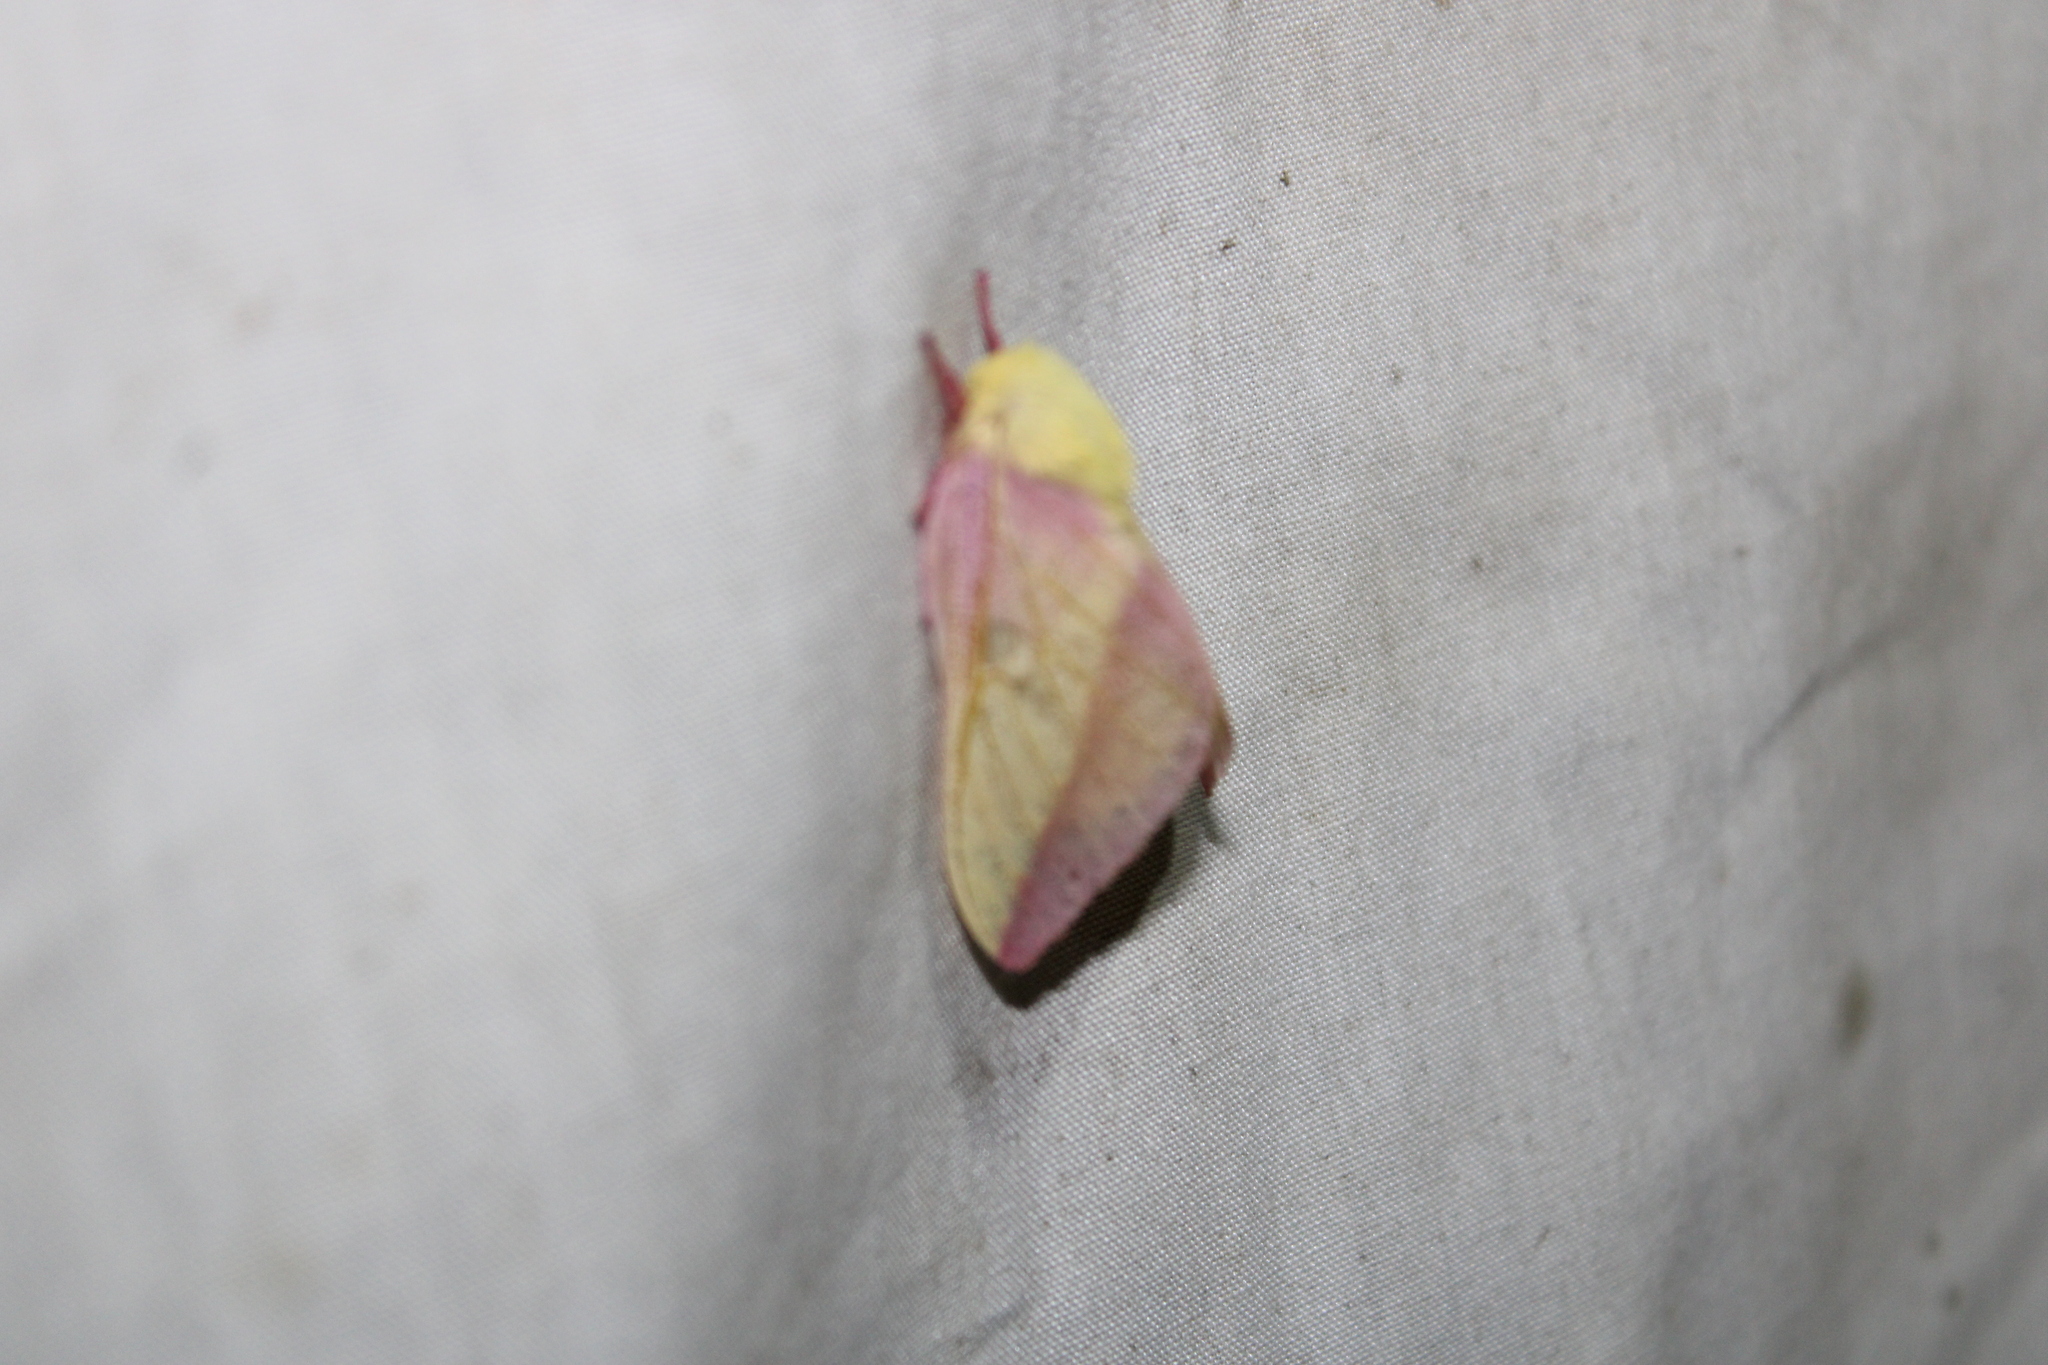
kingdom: Animalia
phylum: Arthropoda
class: Insecta
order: Lepidoptera
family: Saturniidae
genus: Dryocampa
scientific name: Dryocampa rubicunda
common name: Rosy maple moth
